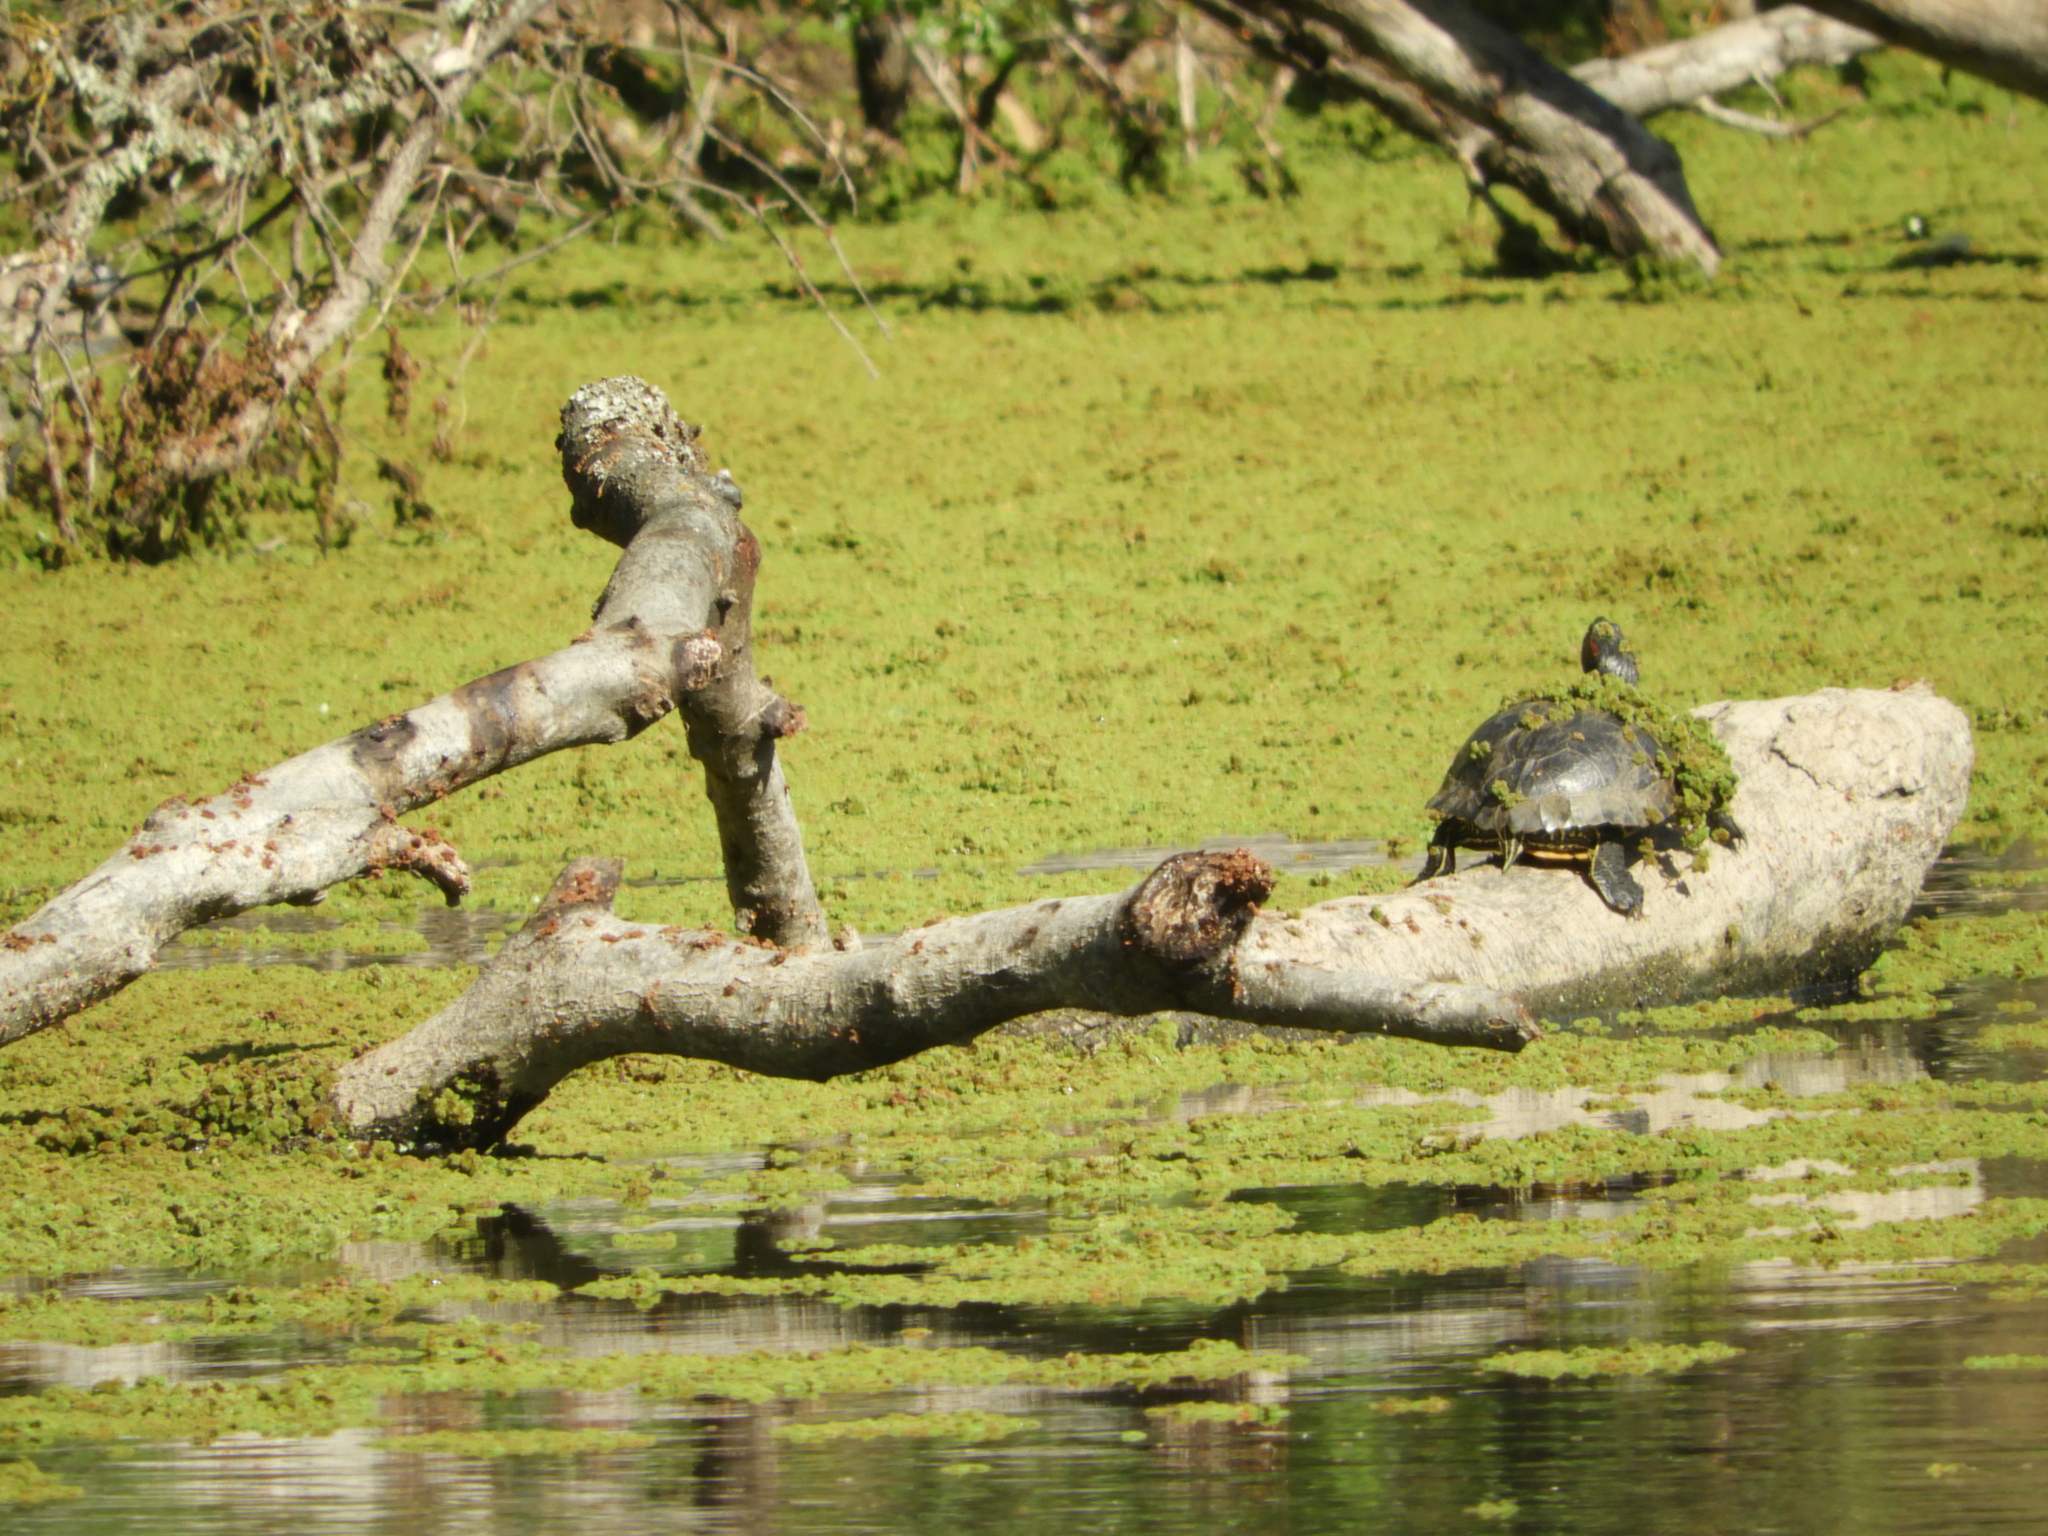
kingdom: Animalia
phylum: Chordata
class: Testudines
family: Emydidae
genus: Trachemys
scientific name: Trachemys scripta
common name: Slider
